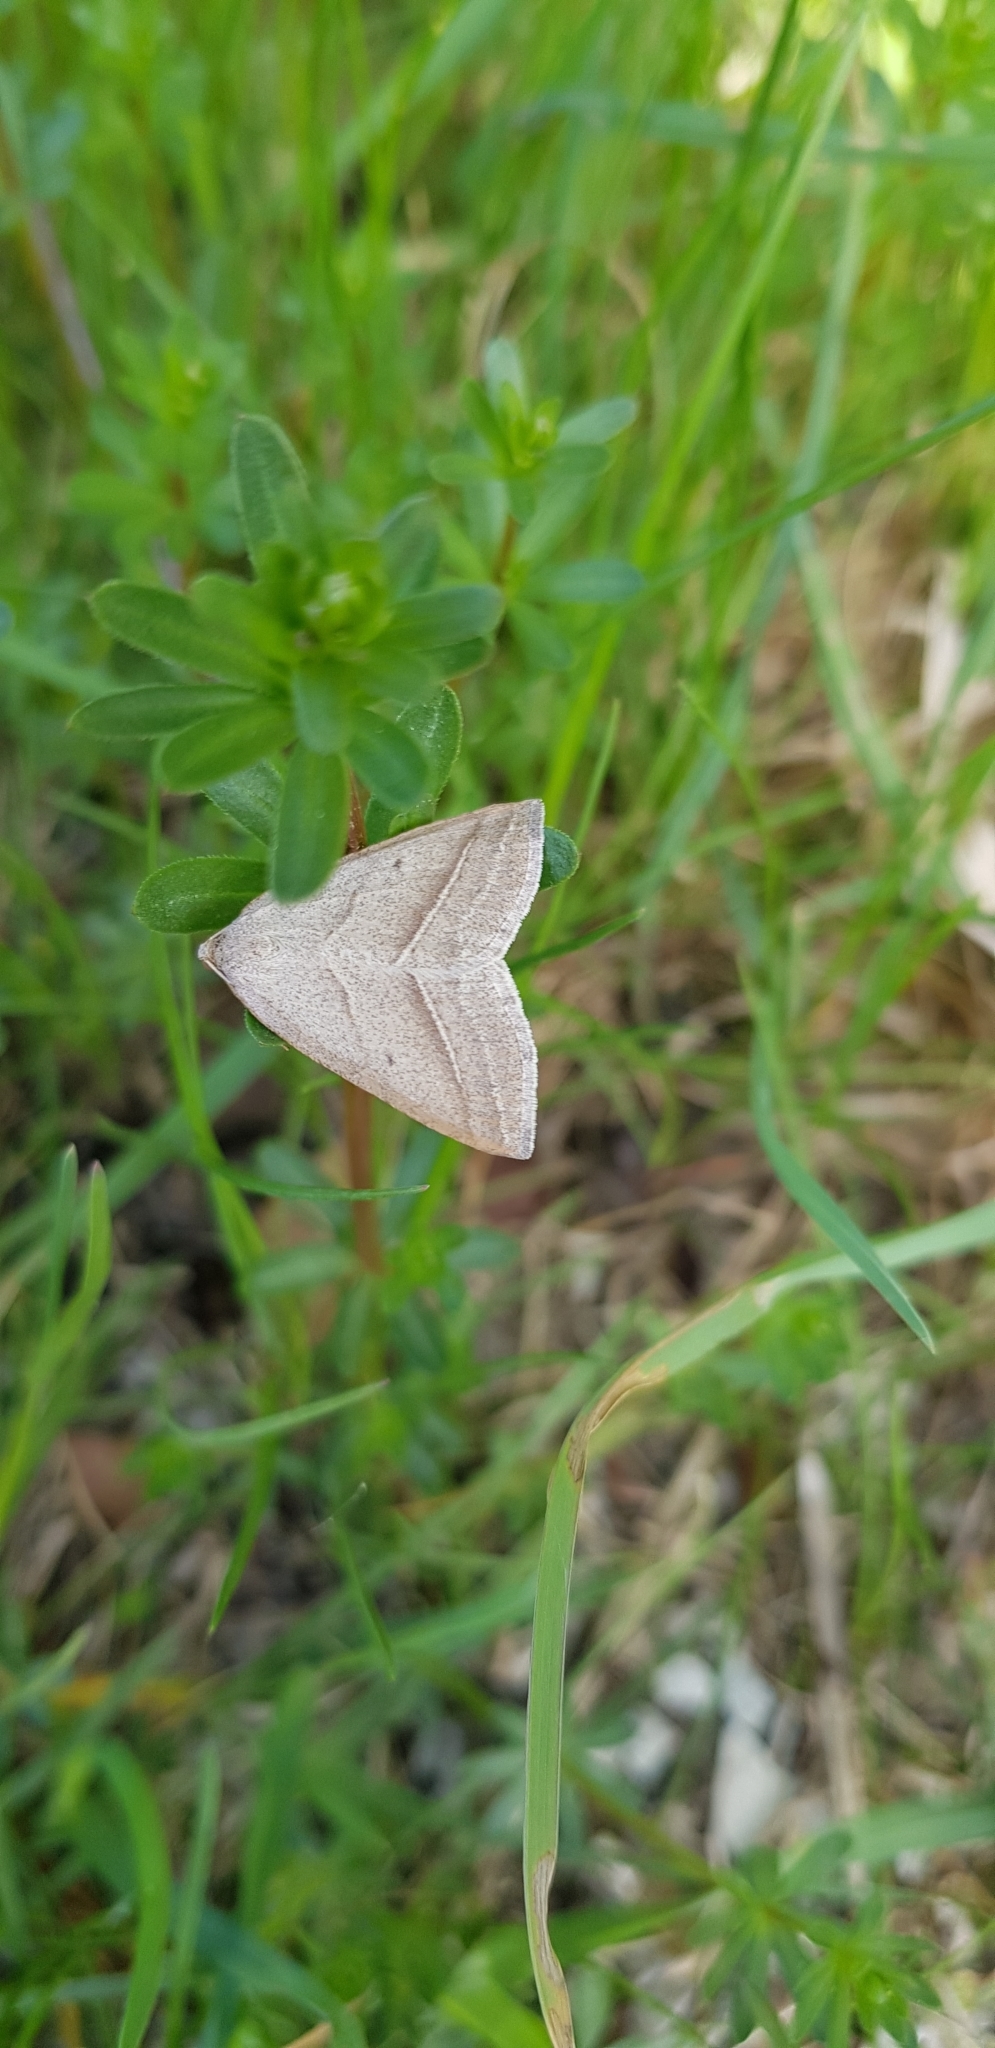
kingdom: Animalia
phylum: Arthropoda
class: Insecta
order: Lepidoptera
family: Pterophoridae
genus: Pterophorus
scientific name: Pterophorus Petrophora chlorosata
